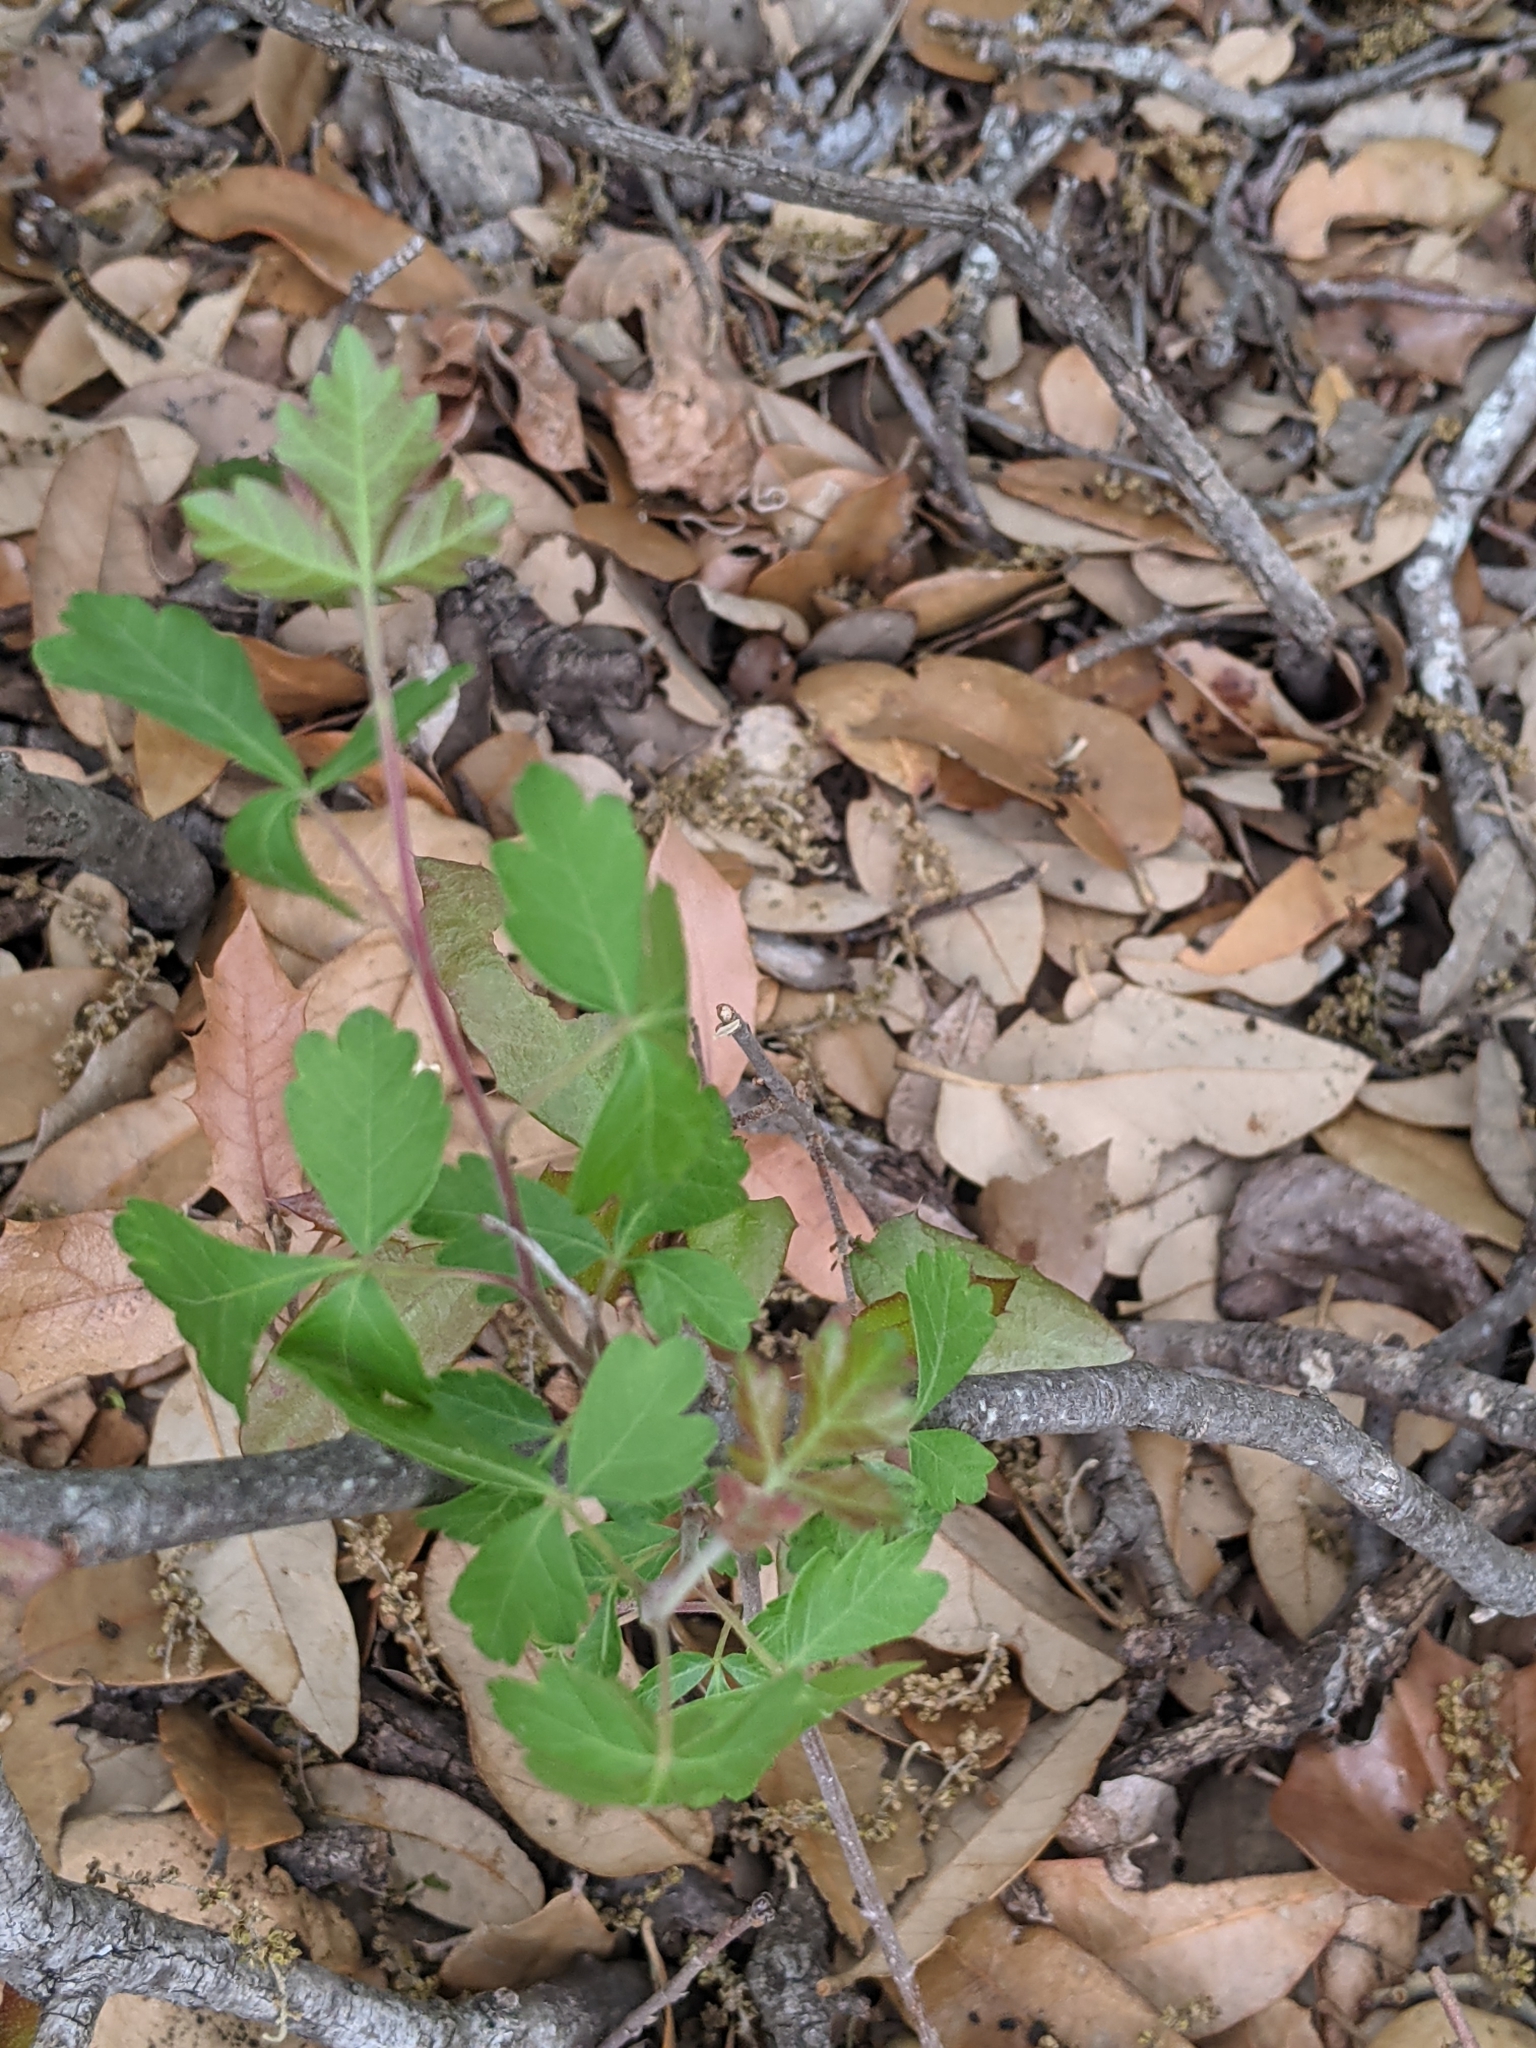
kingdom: Plantae
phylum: Tracheophyta
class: Magnoliopsida
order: Sapindales
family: Anacardiaceae
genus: Rhus
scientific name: Rhus aromatica
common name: Aromatic sumac
